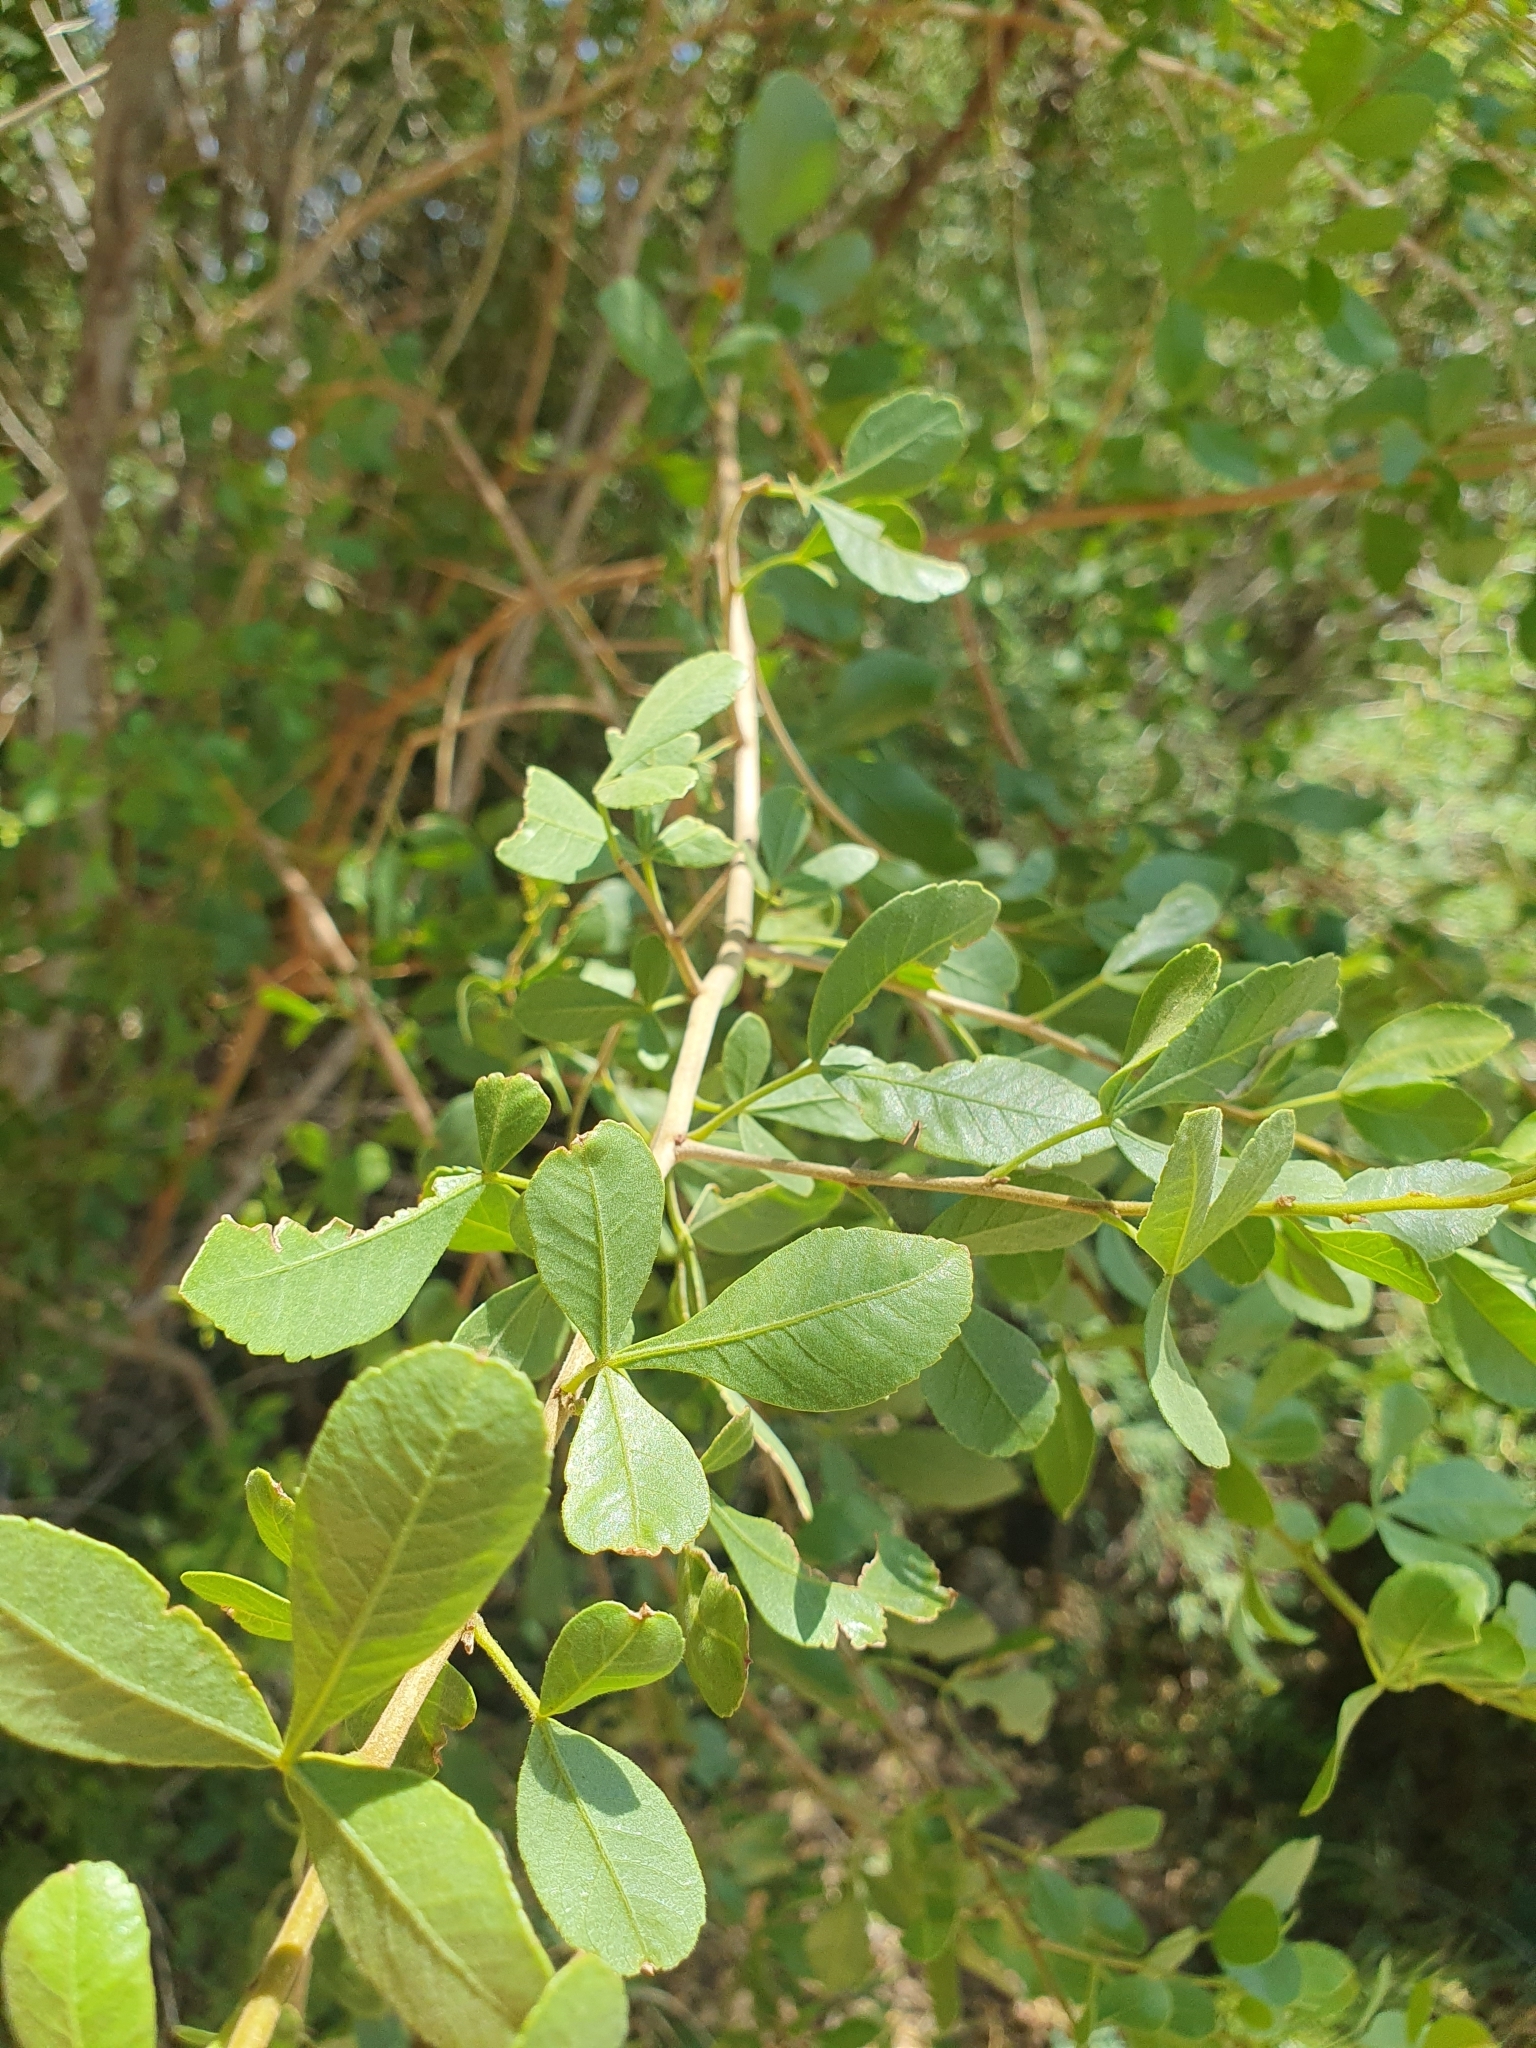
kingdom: Plantae
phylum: Tracheophyta
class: Magnoliopsida
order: Sapindales
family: Anacardiaceae
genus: Searsia
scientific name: Searsia marlothii
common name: Bitter karee
